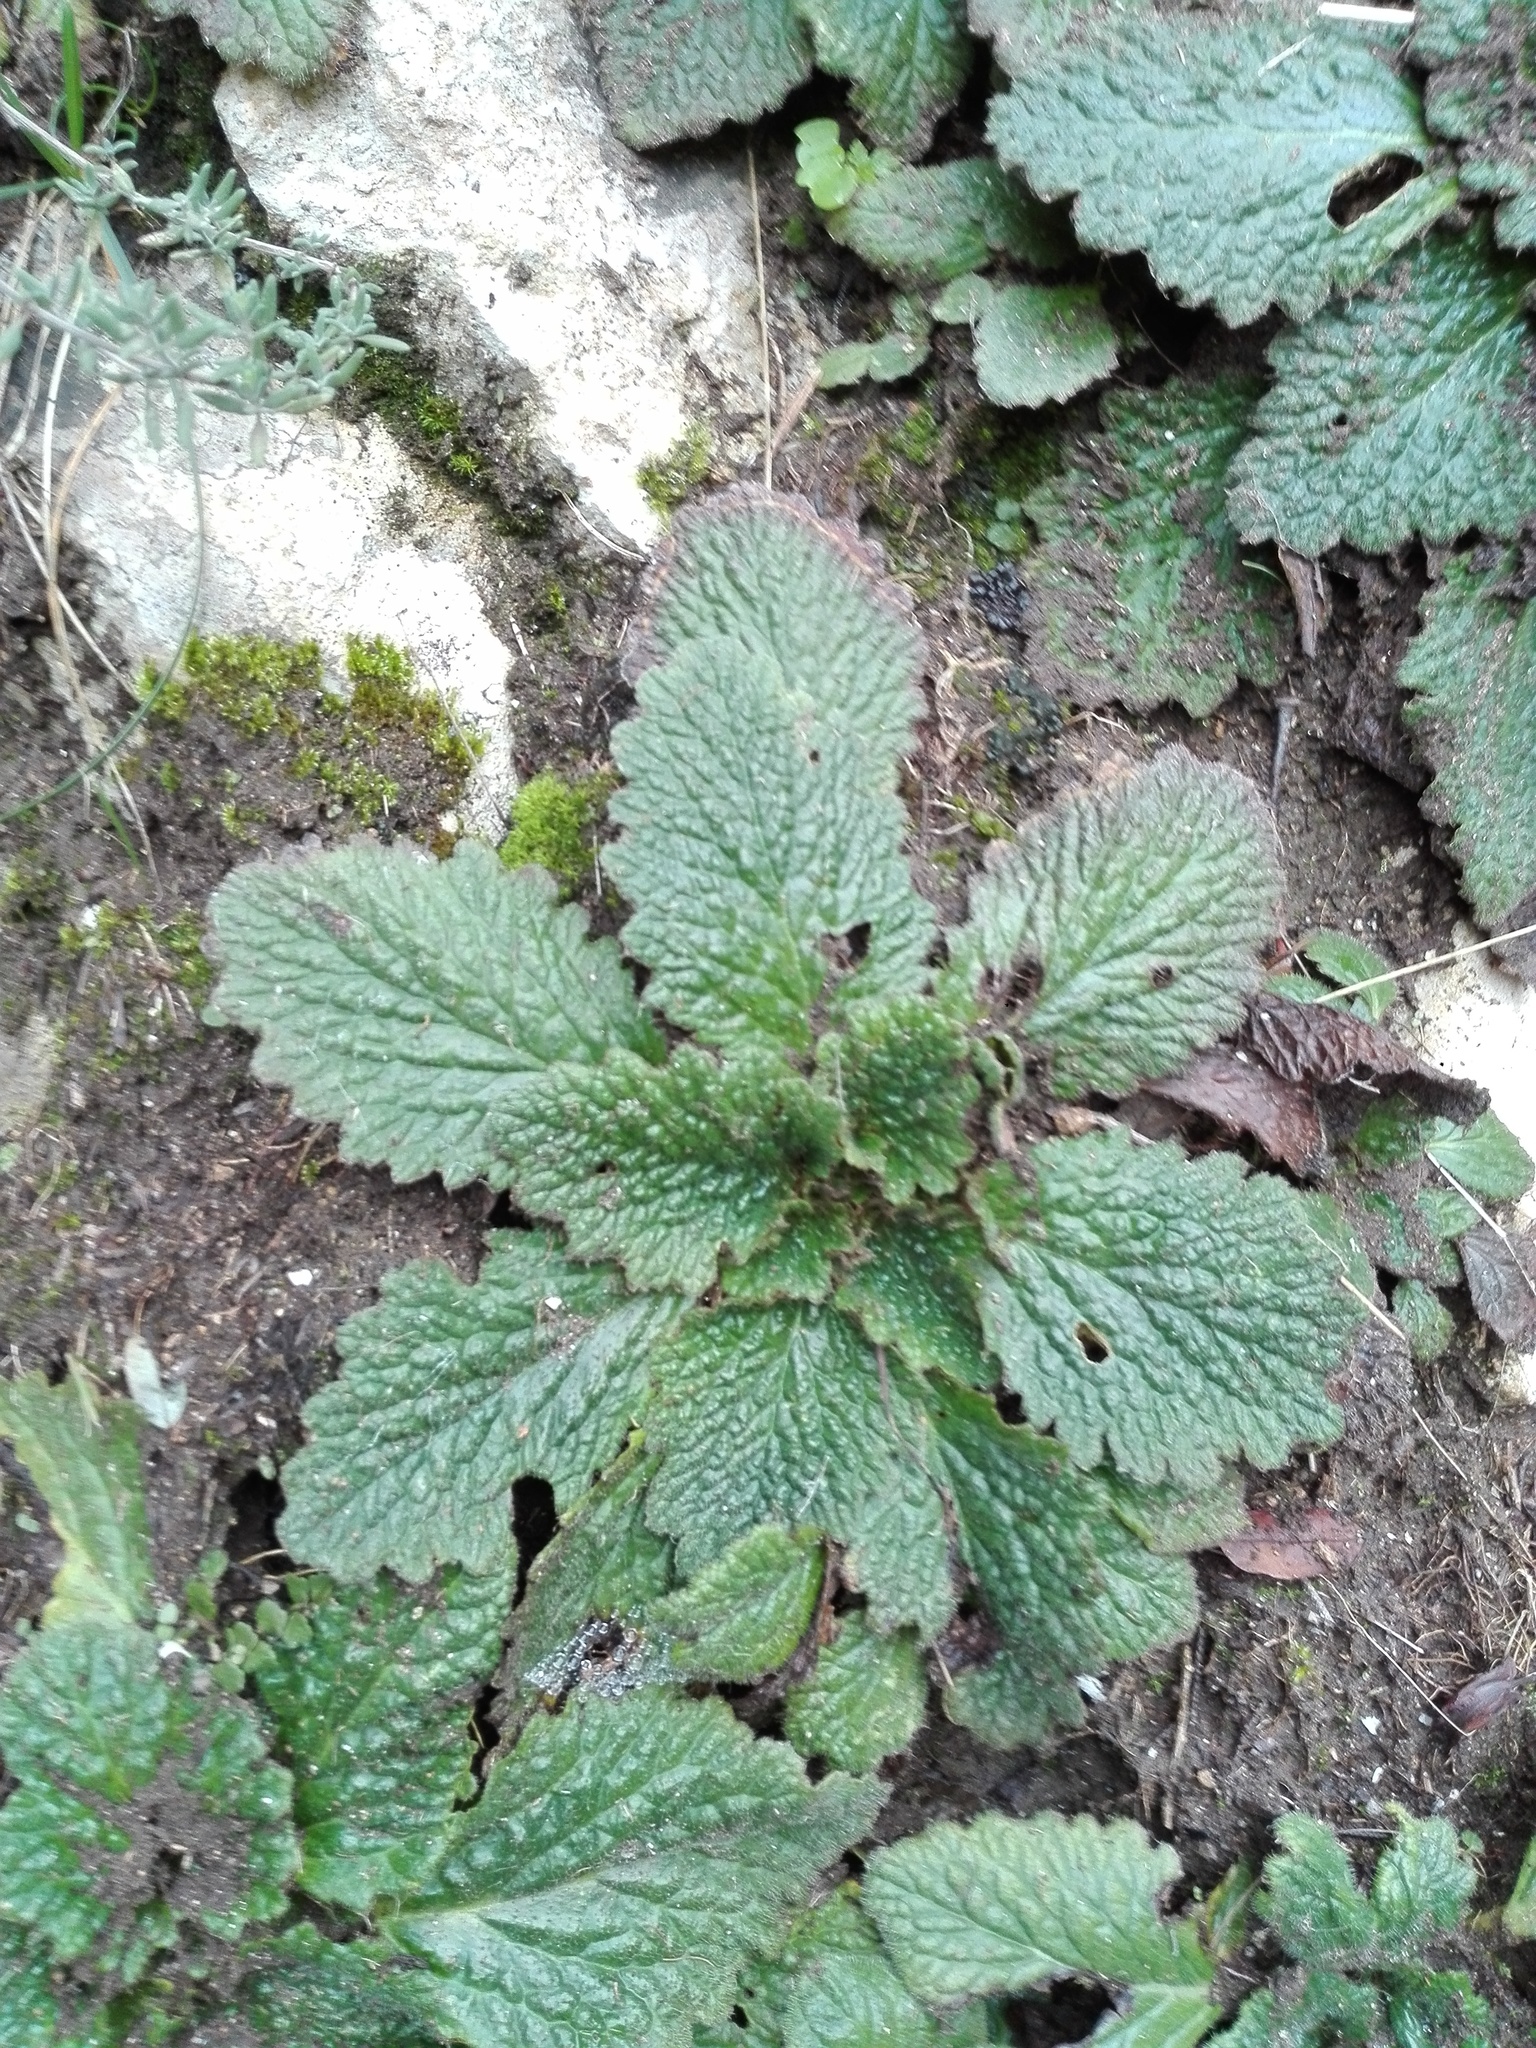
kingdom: Plantae
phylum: Tracheophyta
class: Magnoliopsida
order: Lamiales
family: Gesneriaceae
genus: Ramonda
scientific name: Ramonda myconi
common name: Pyrenean-violet
